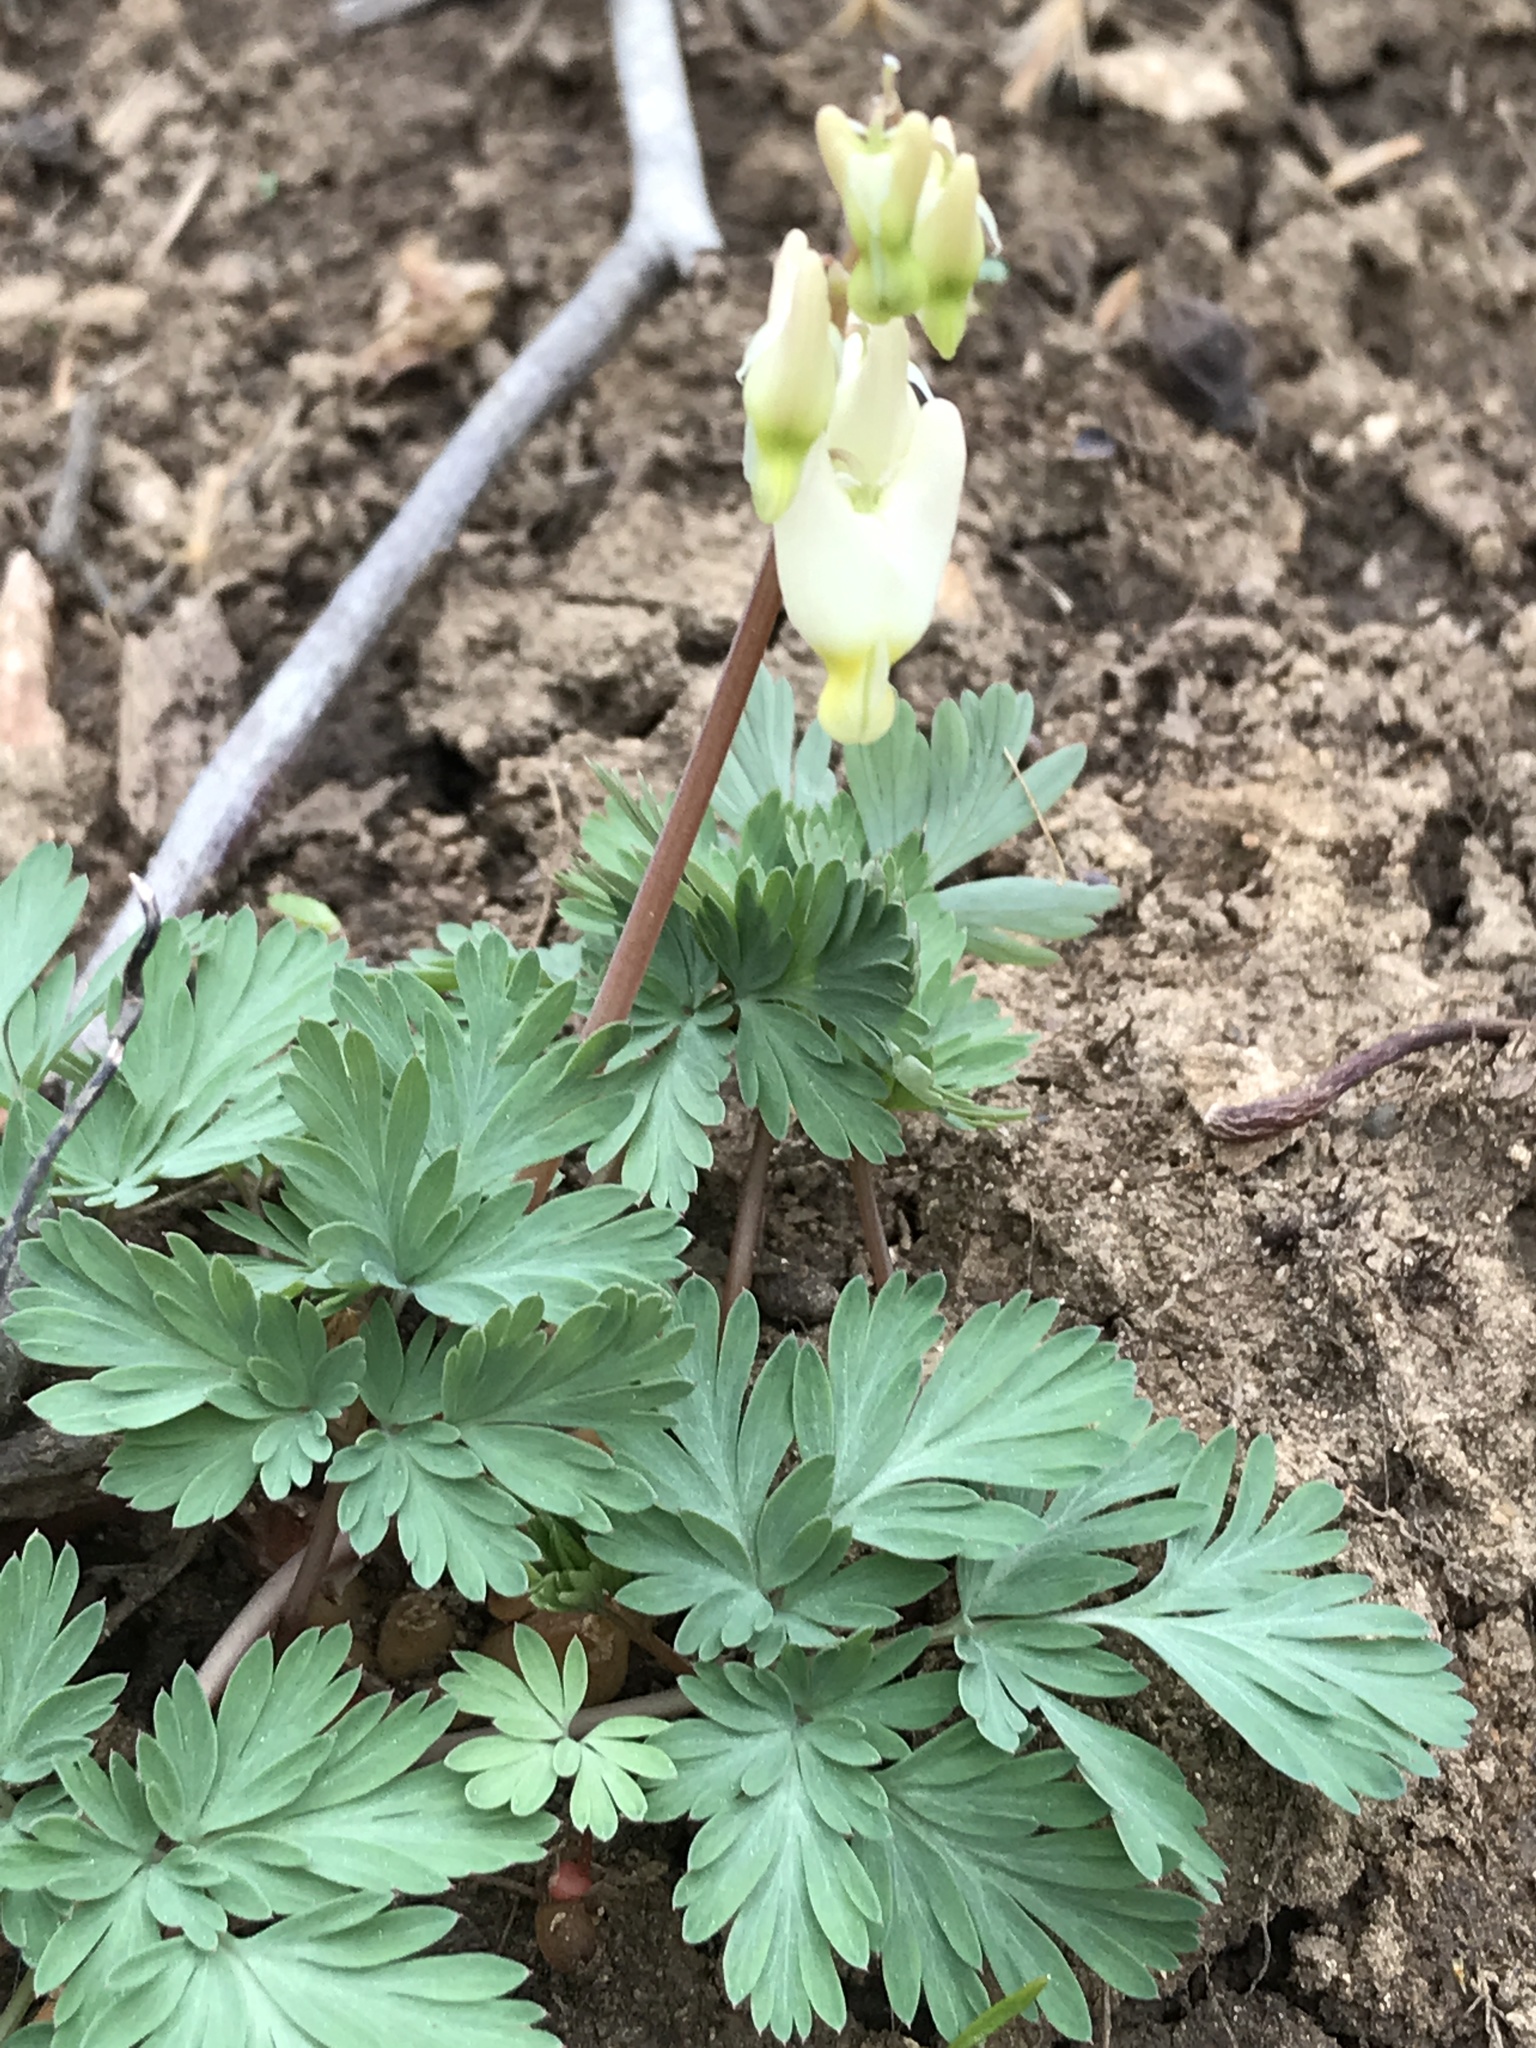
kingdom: Plantae
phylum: Tracheophyta
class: Magnoliopsida
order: Ranunculales
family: Papaveraceae
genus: Dicentra
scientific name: Dicentra cucullaria
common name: Dutchman's breeches
